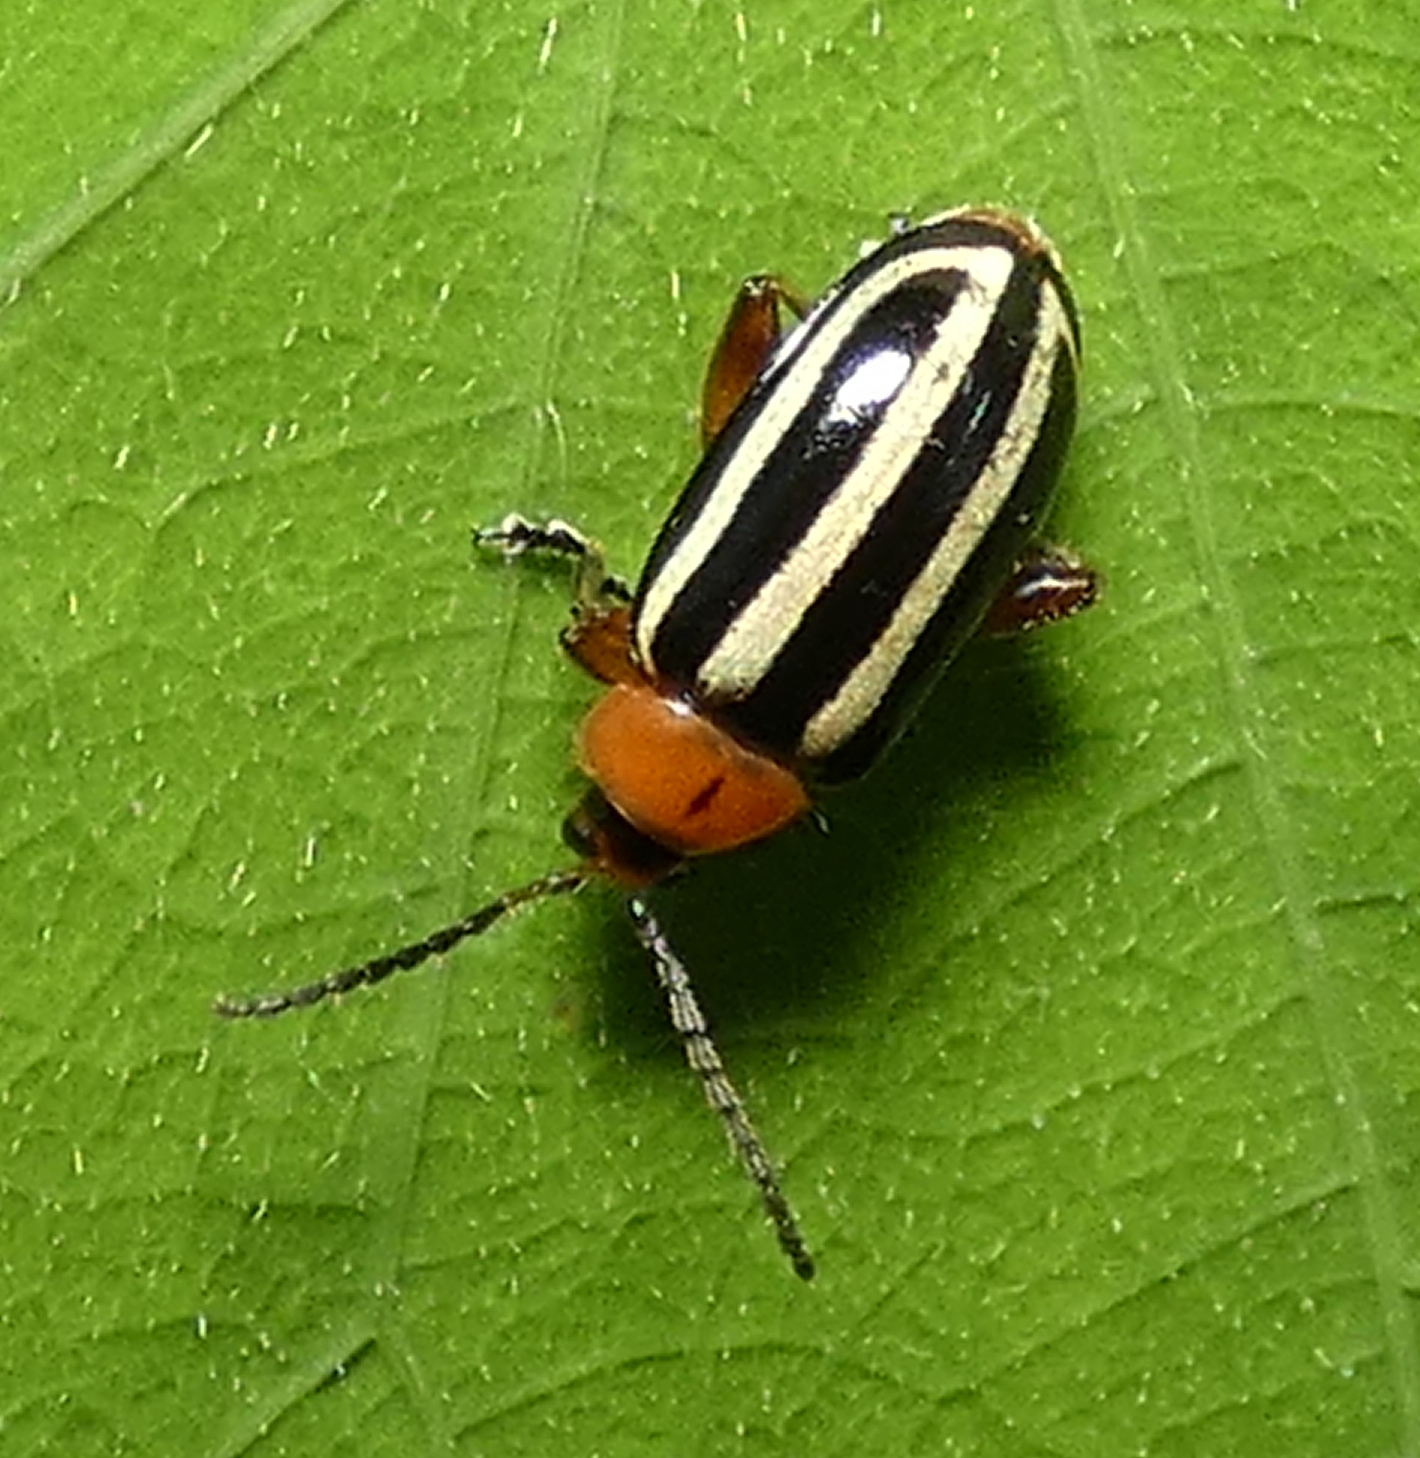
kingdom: Animalia
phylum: Arthropoda
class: Insecta
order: Coleoptera
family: Chrysomelidae
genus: Disonycha
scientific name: Disonycha glabrata
